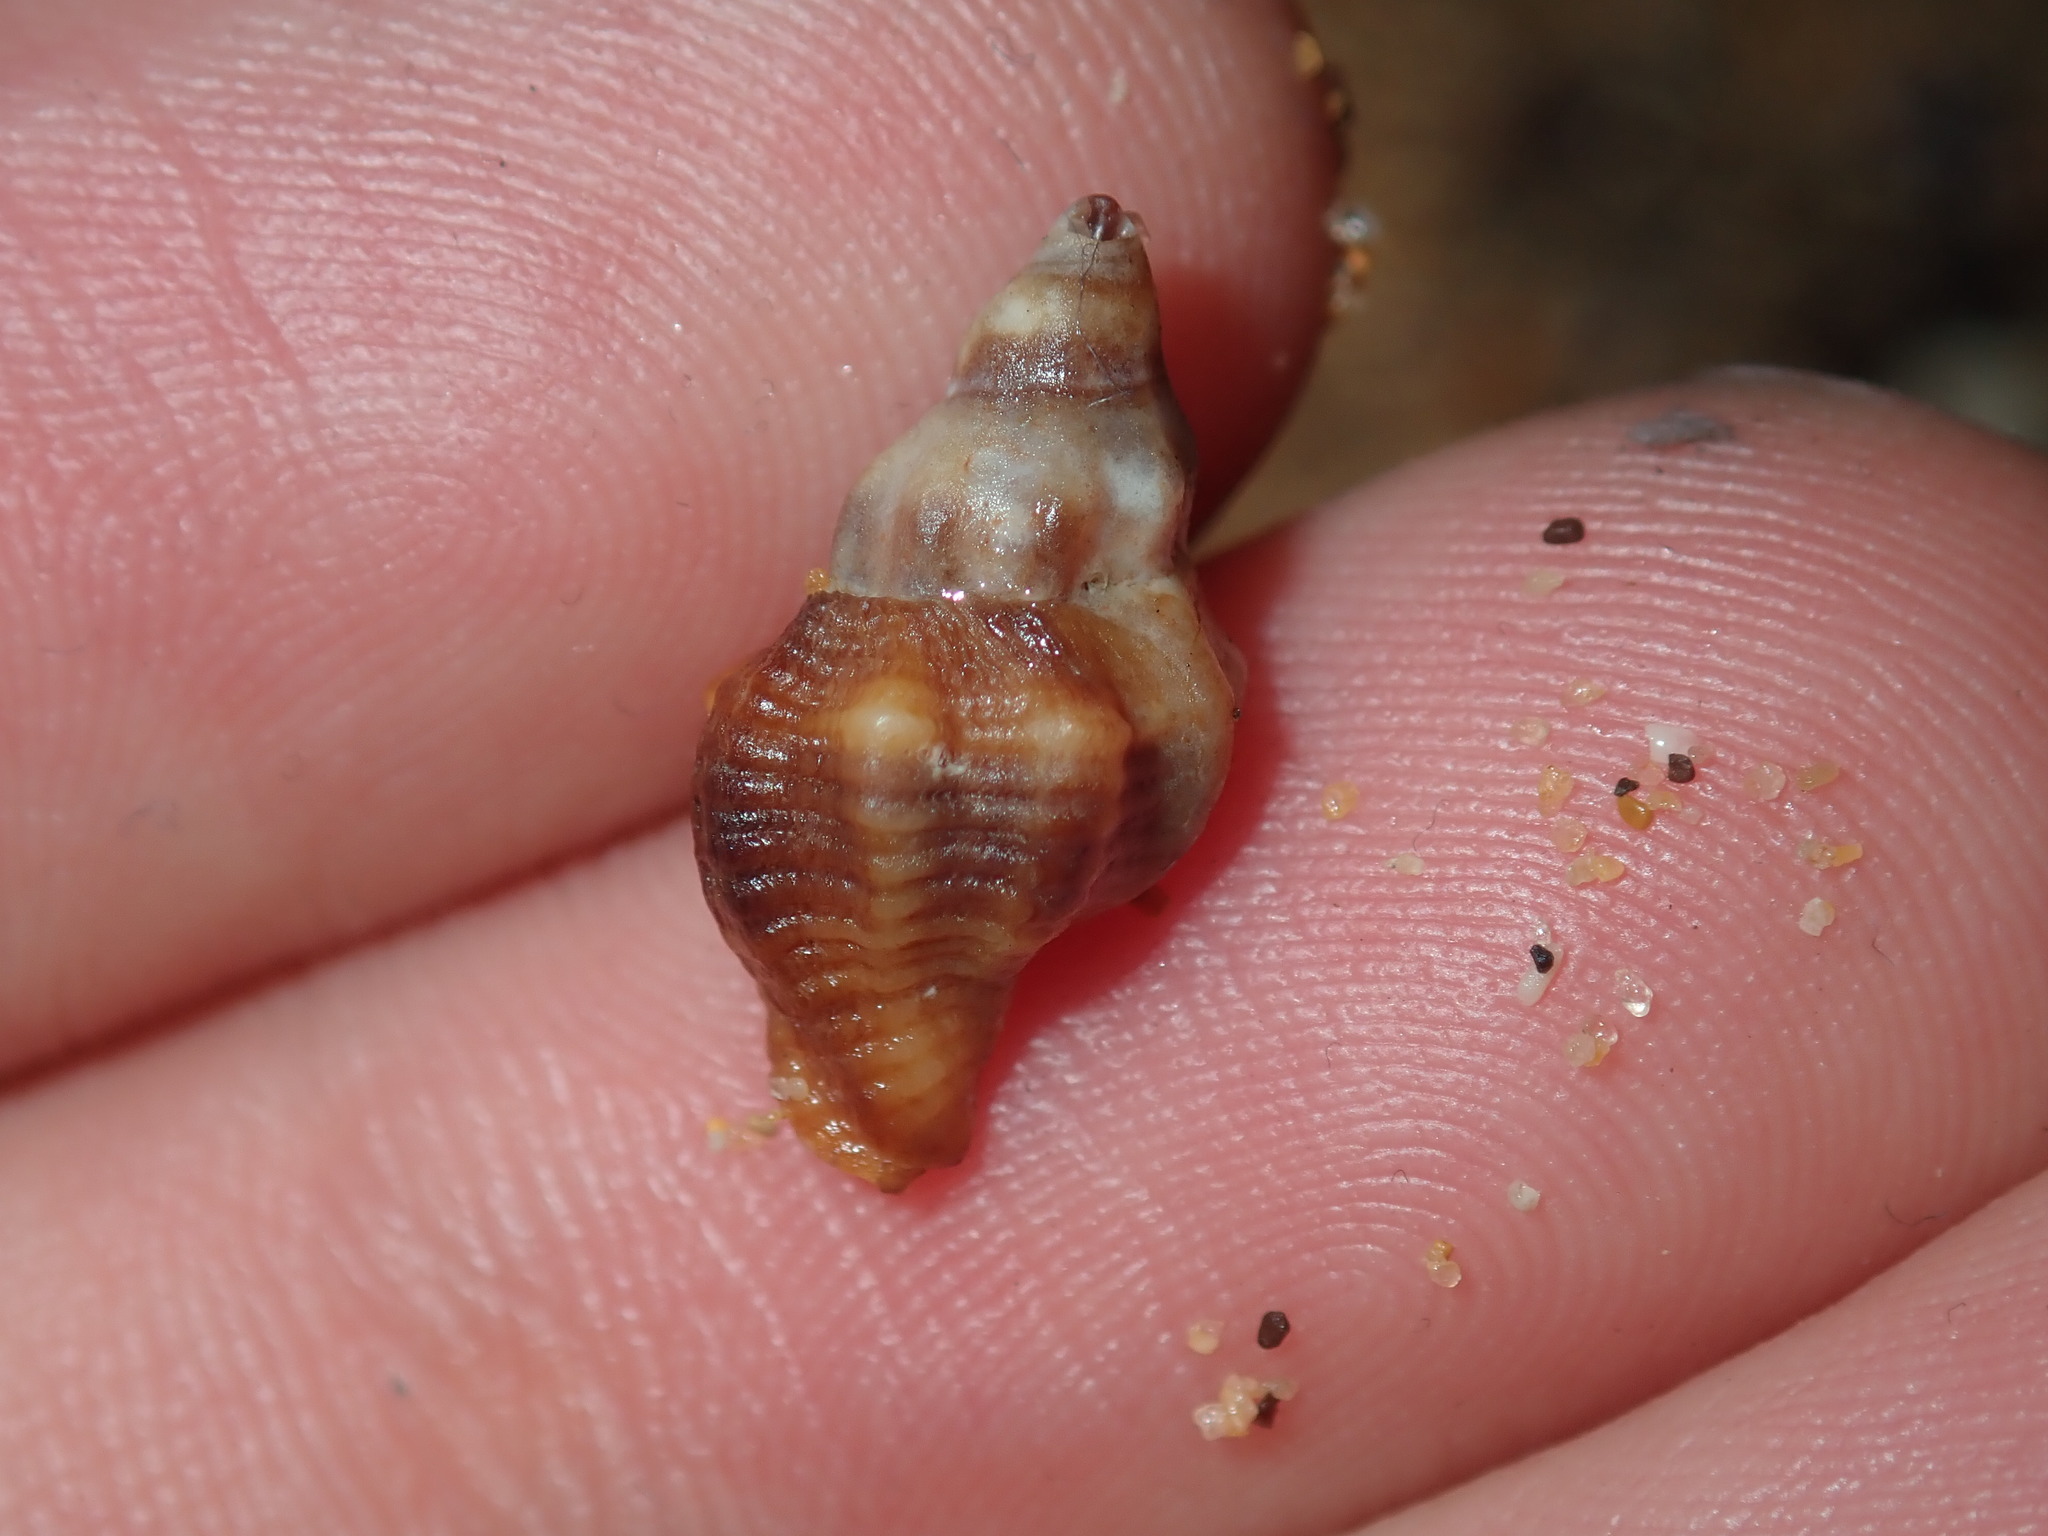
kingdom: Animalia
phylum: Mollusca
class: Gastropoda
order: Neogastropoda
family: Muricidae
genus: Bedeva
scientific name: Bedeva paivae
